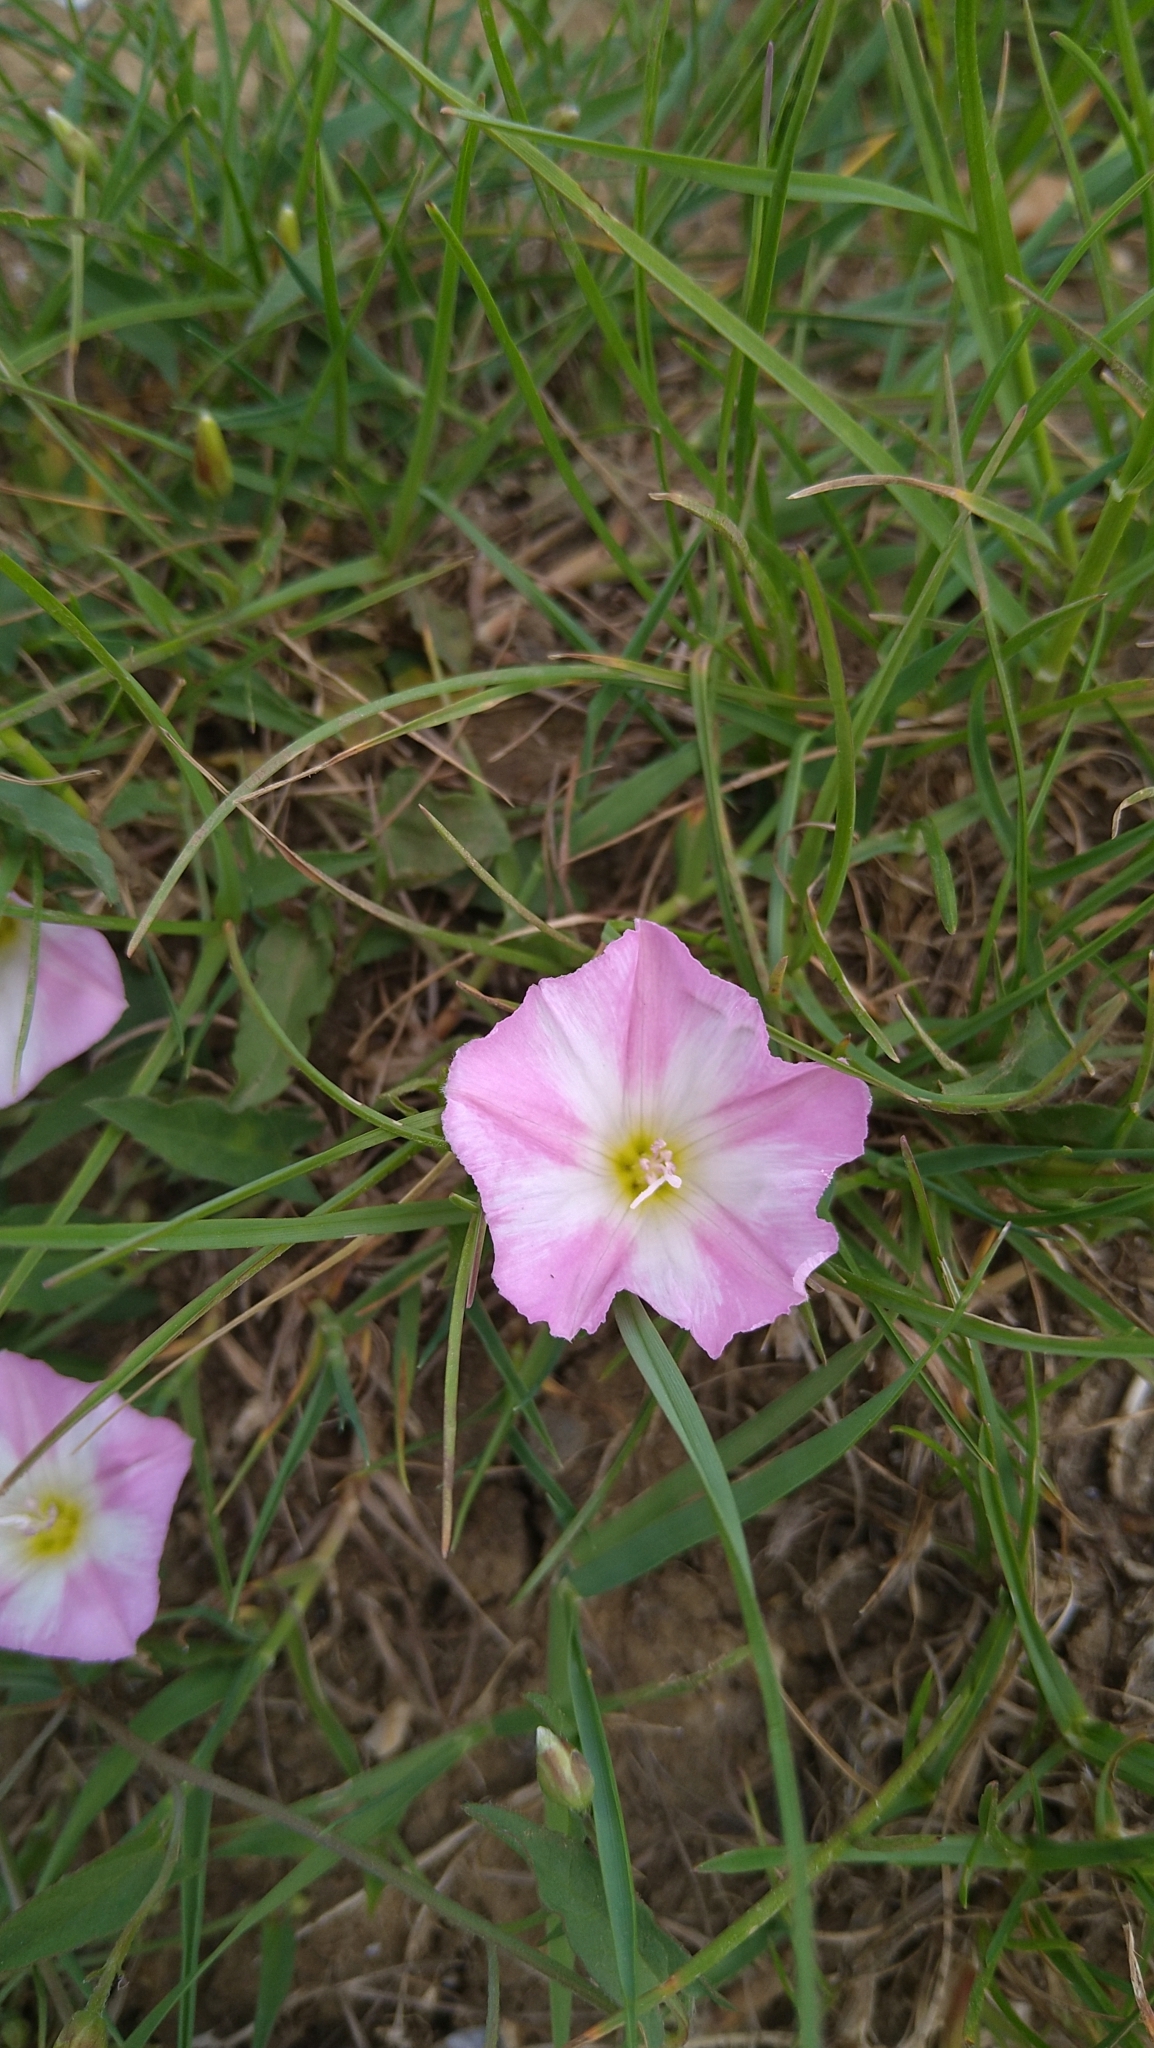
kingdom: Plantae
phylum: Tracheophyta
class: Magnoliopsida
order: Solanales
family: Convolvulaceae
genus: Convolvulus
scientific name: Convolvulus arvensis
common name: Field bindweed
